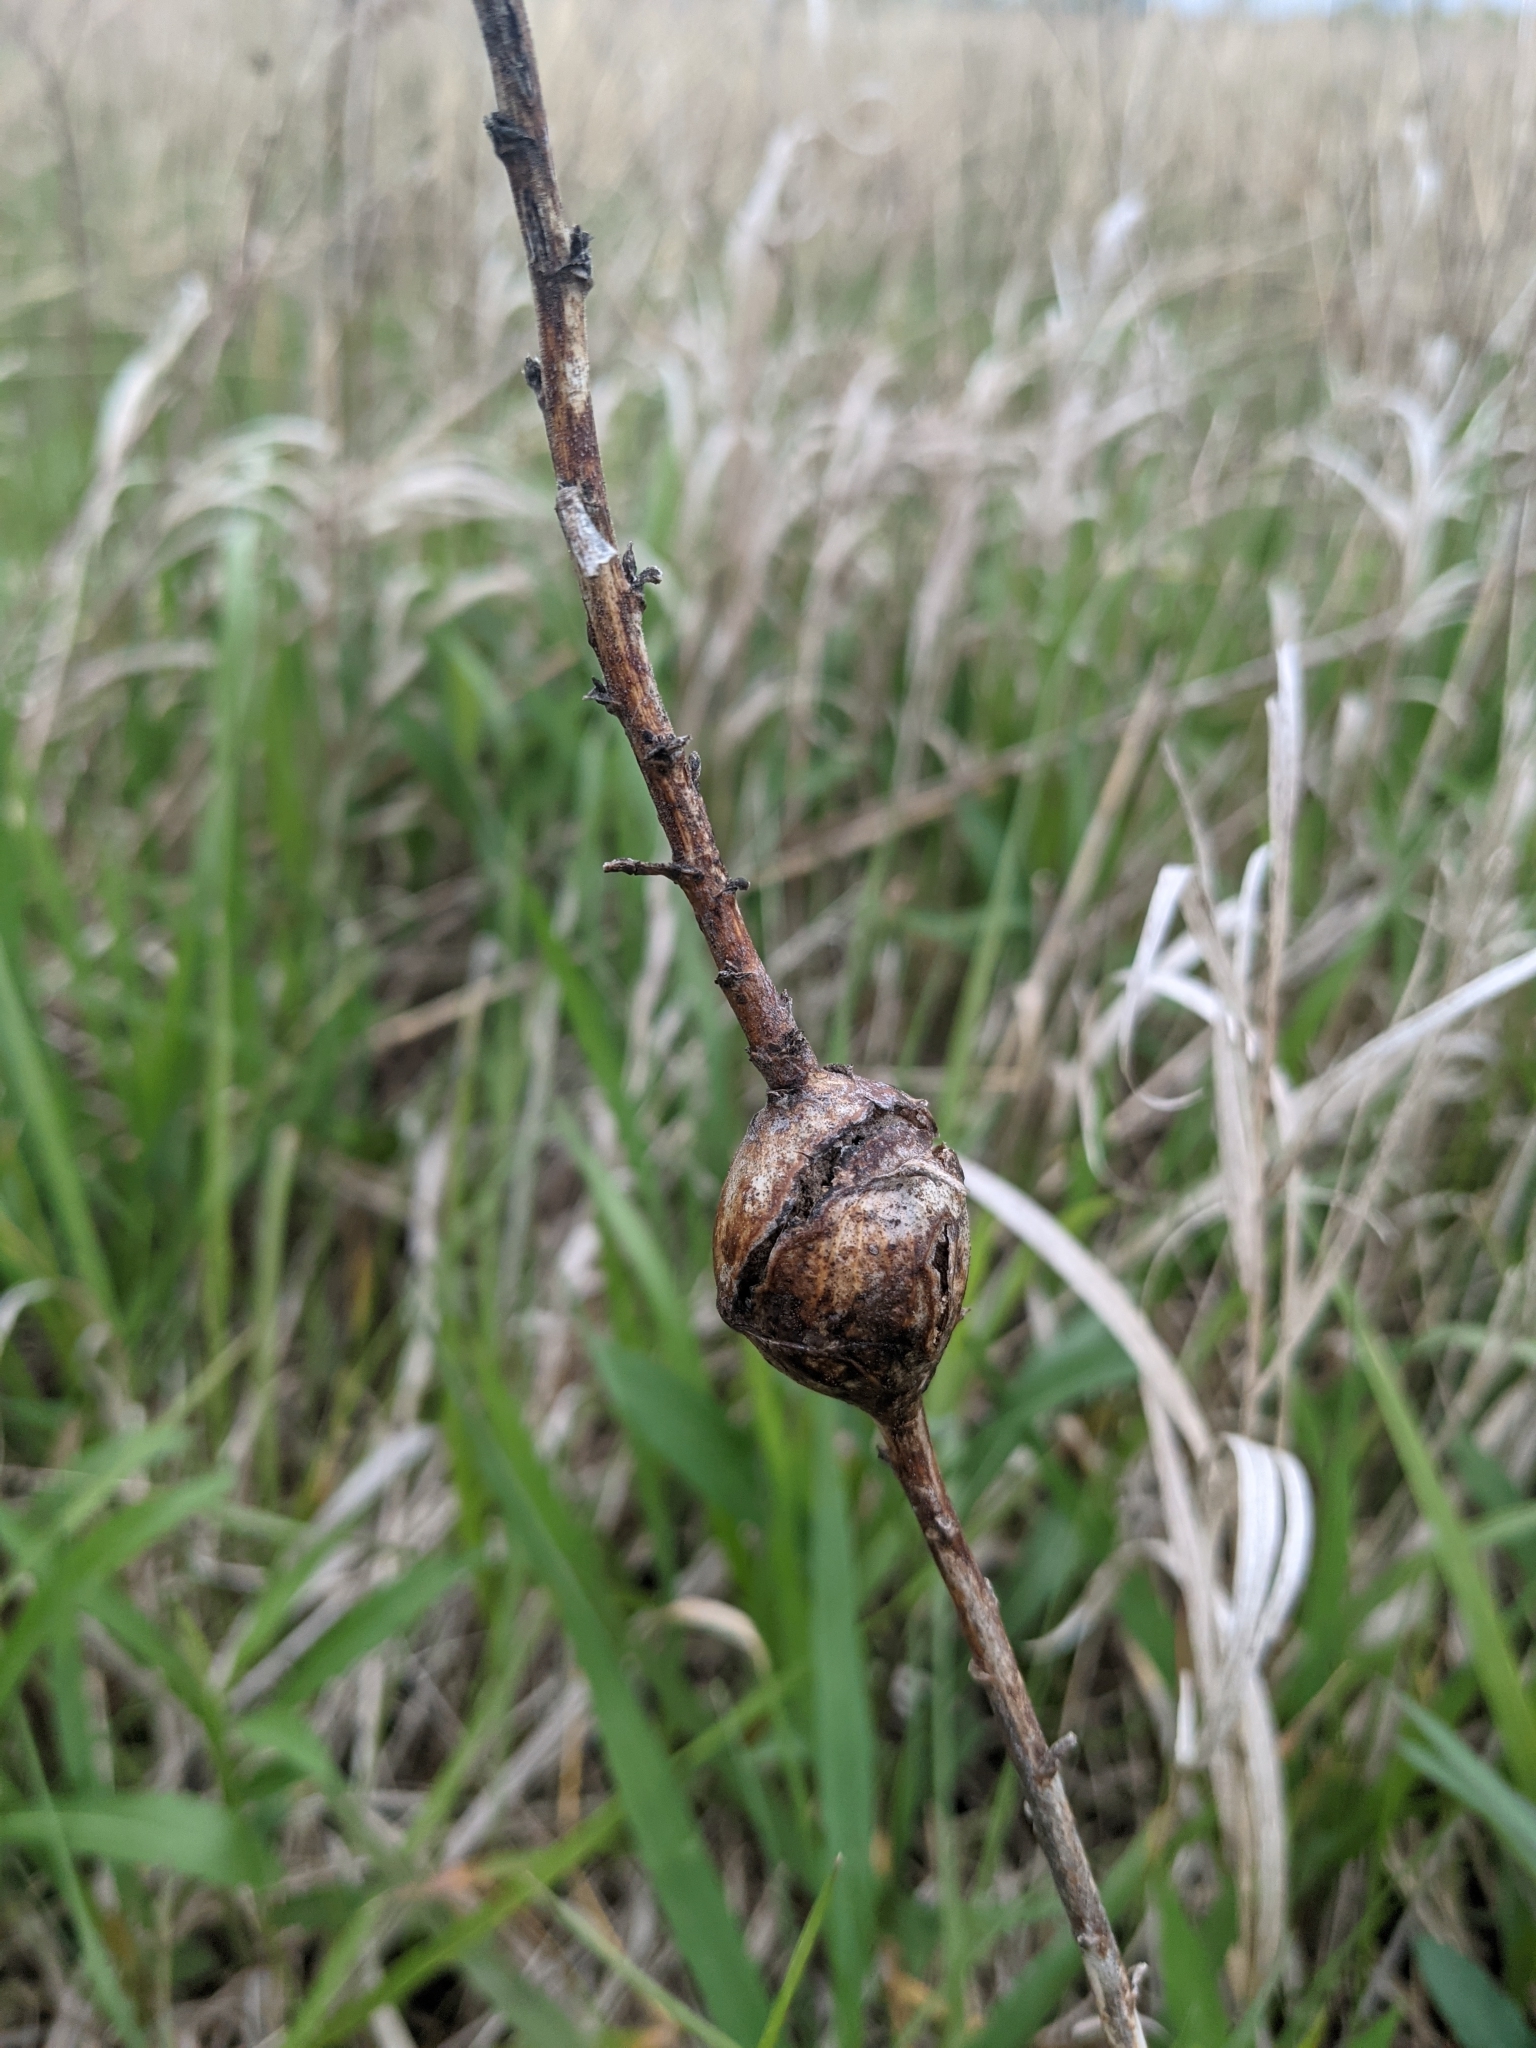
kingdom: Animalia
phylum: Arthropoda
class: Insecta
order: Diptera
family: Tephritidae
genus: Eurosta
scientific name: Eurosta solidaginis
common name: Goldenrod gall fly
